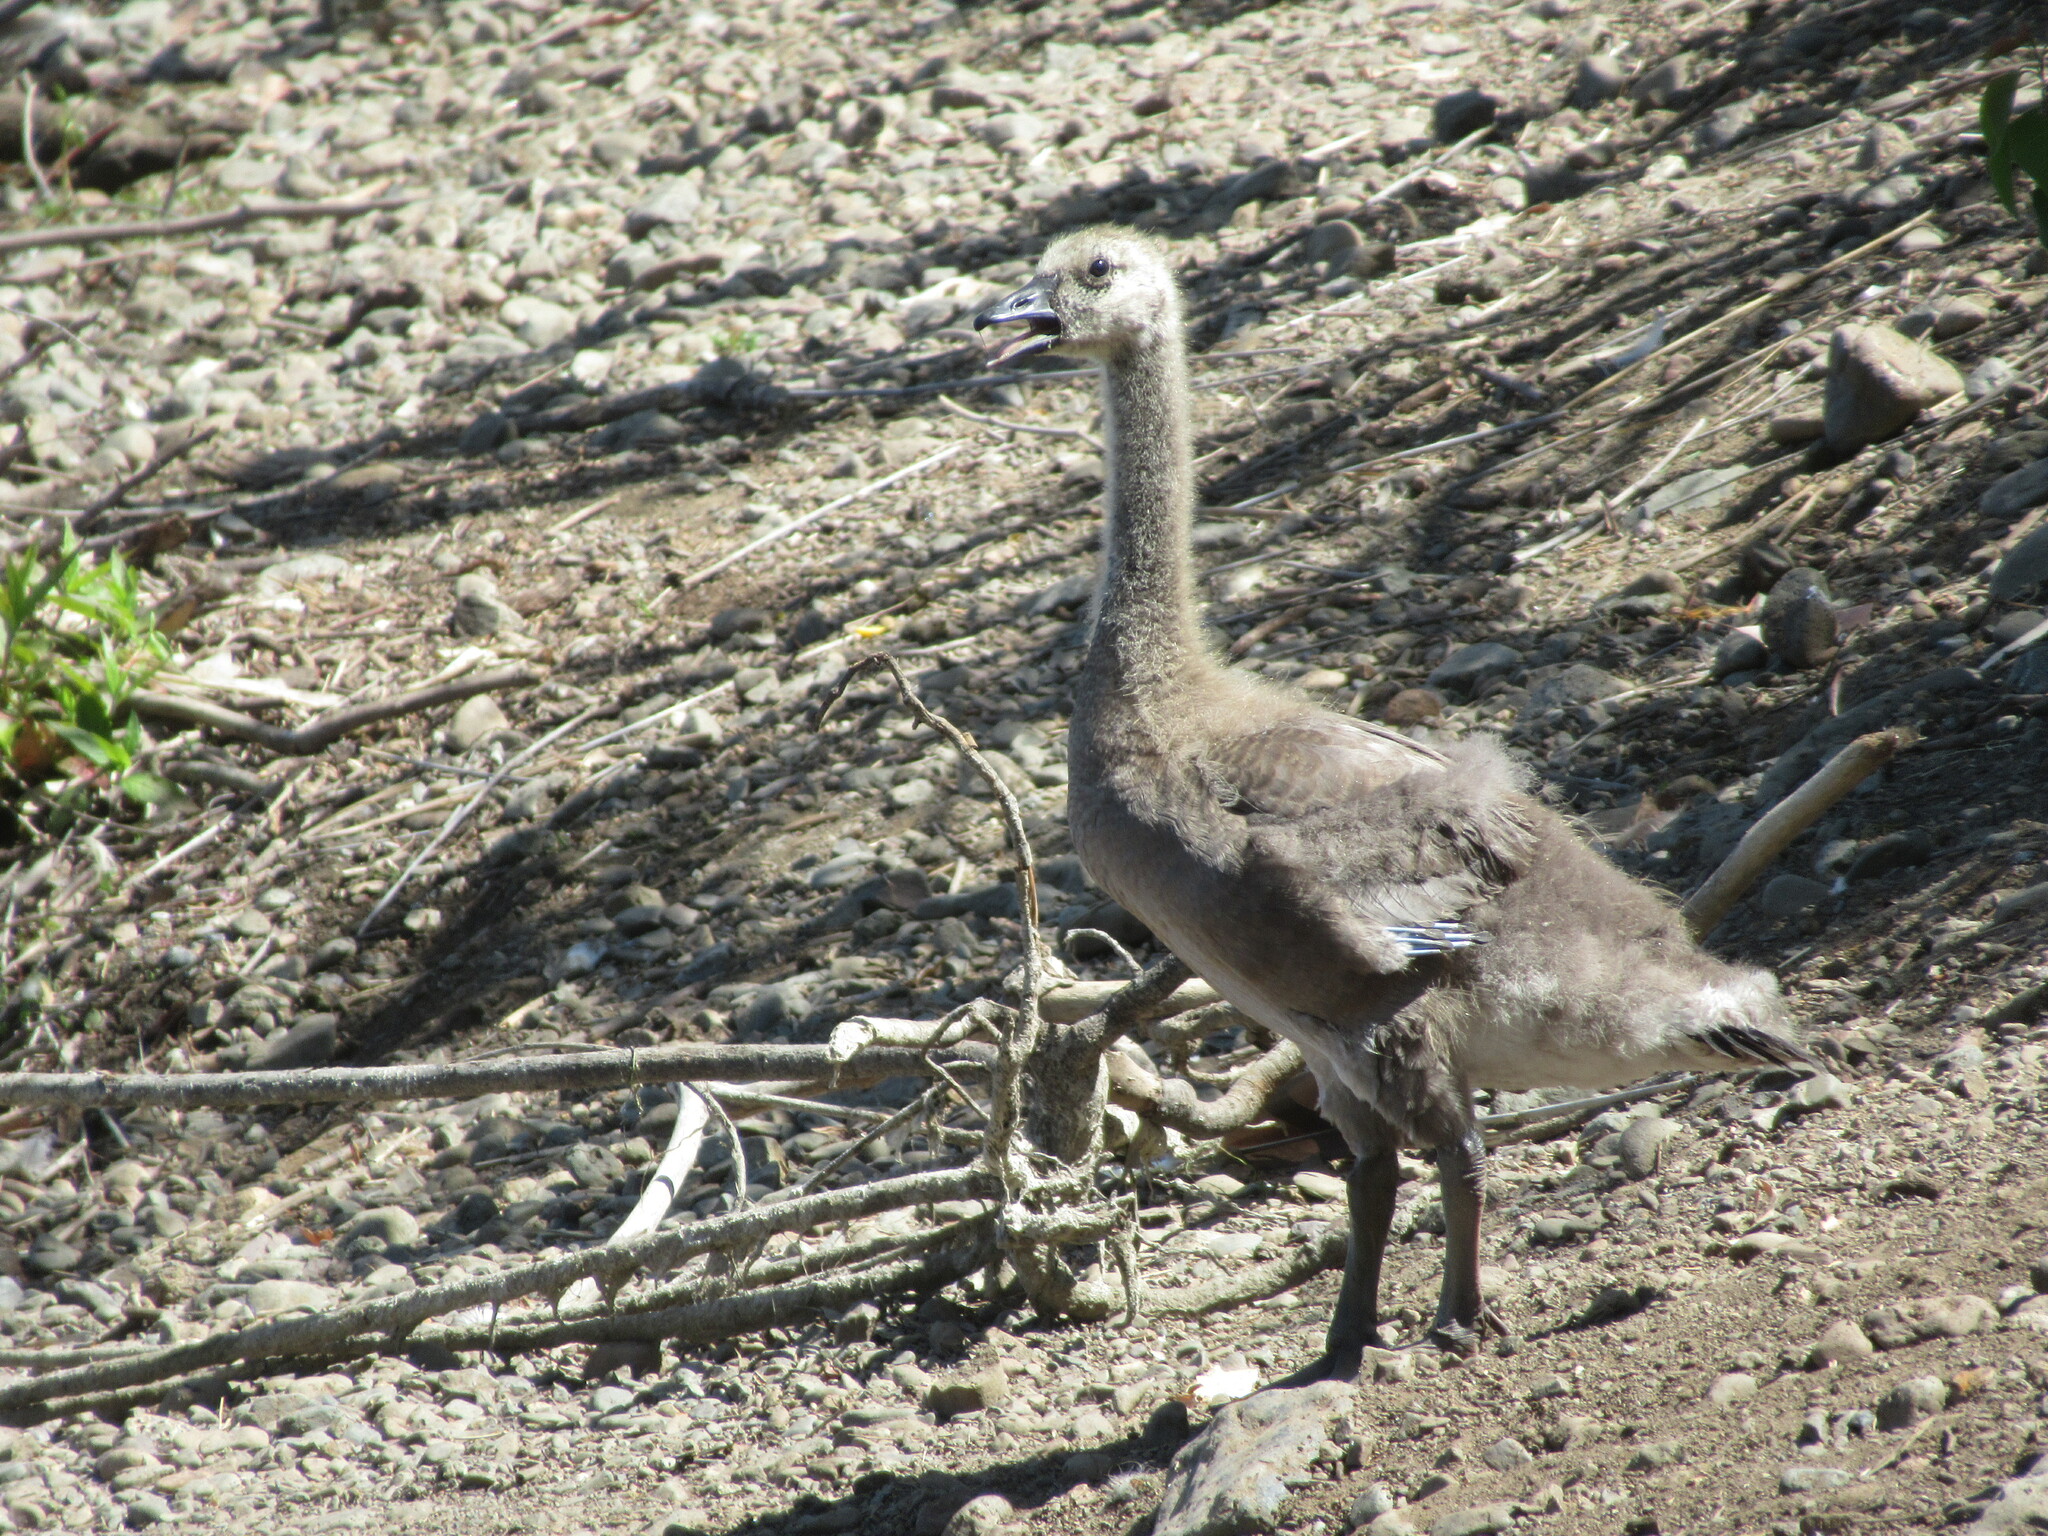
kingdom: Animalia
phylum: Chordata
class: Aves
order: Anseriformes
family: Anatidae
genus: Branta
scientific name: Branta canadensis
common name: Canada goose
